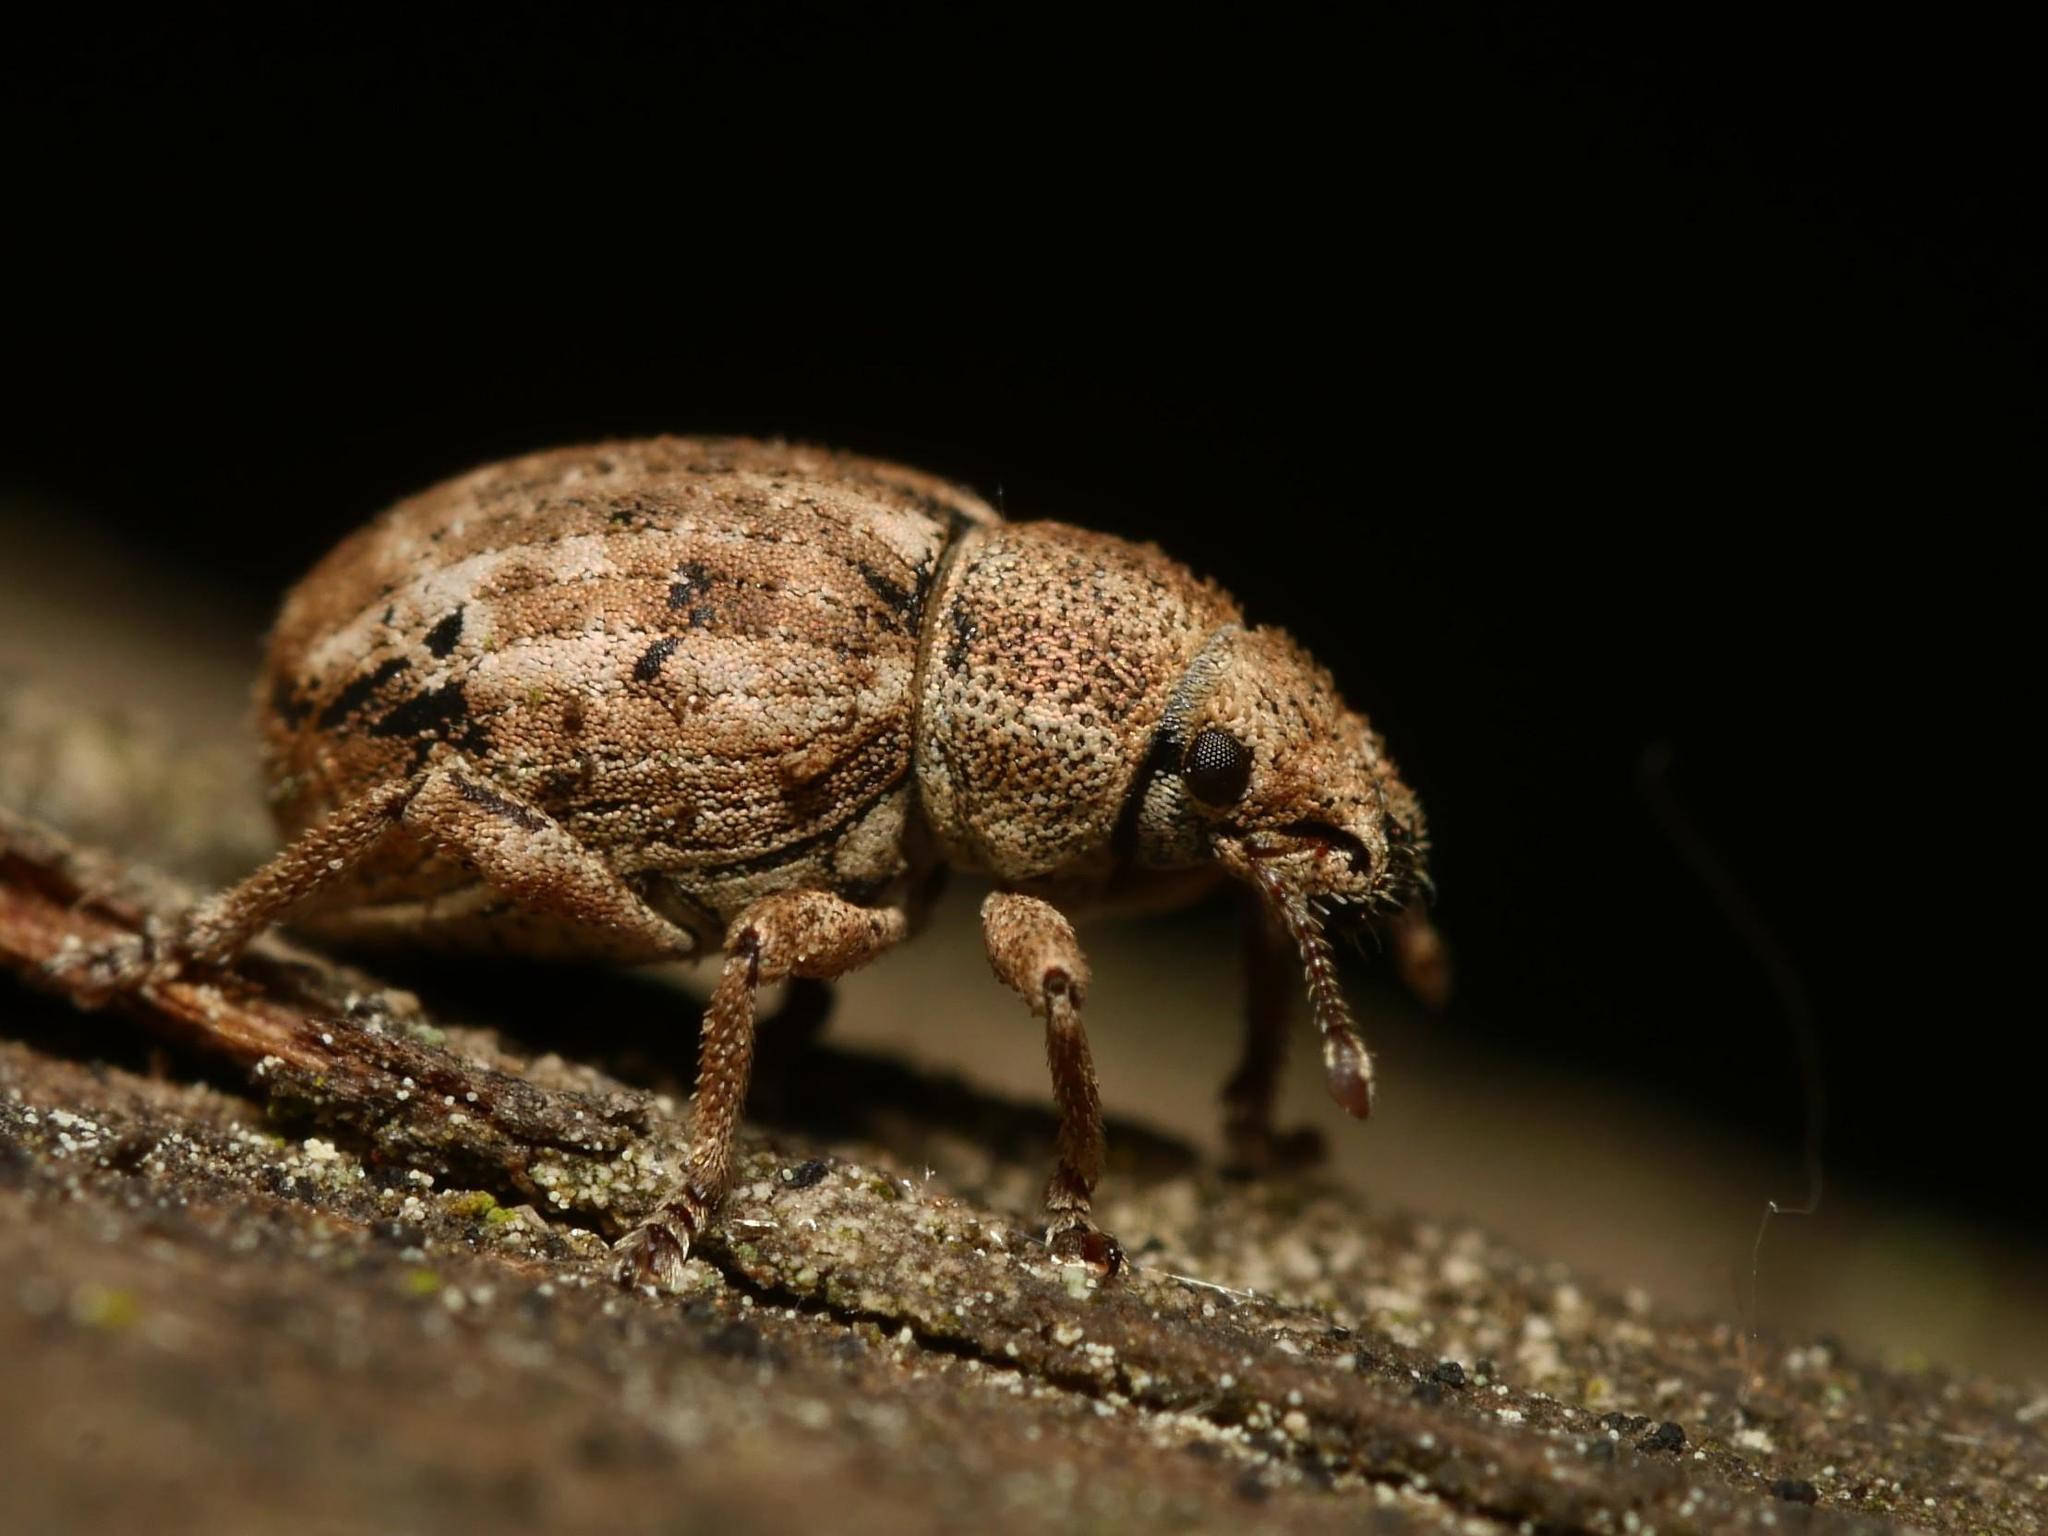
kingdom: Animalia
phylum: Arthropoda
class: Insecta
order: Coleoptera
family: Curculionidae
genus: Strophosoma
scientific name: Strophosoma capitatum
